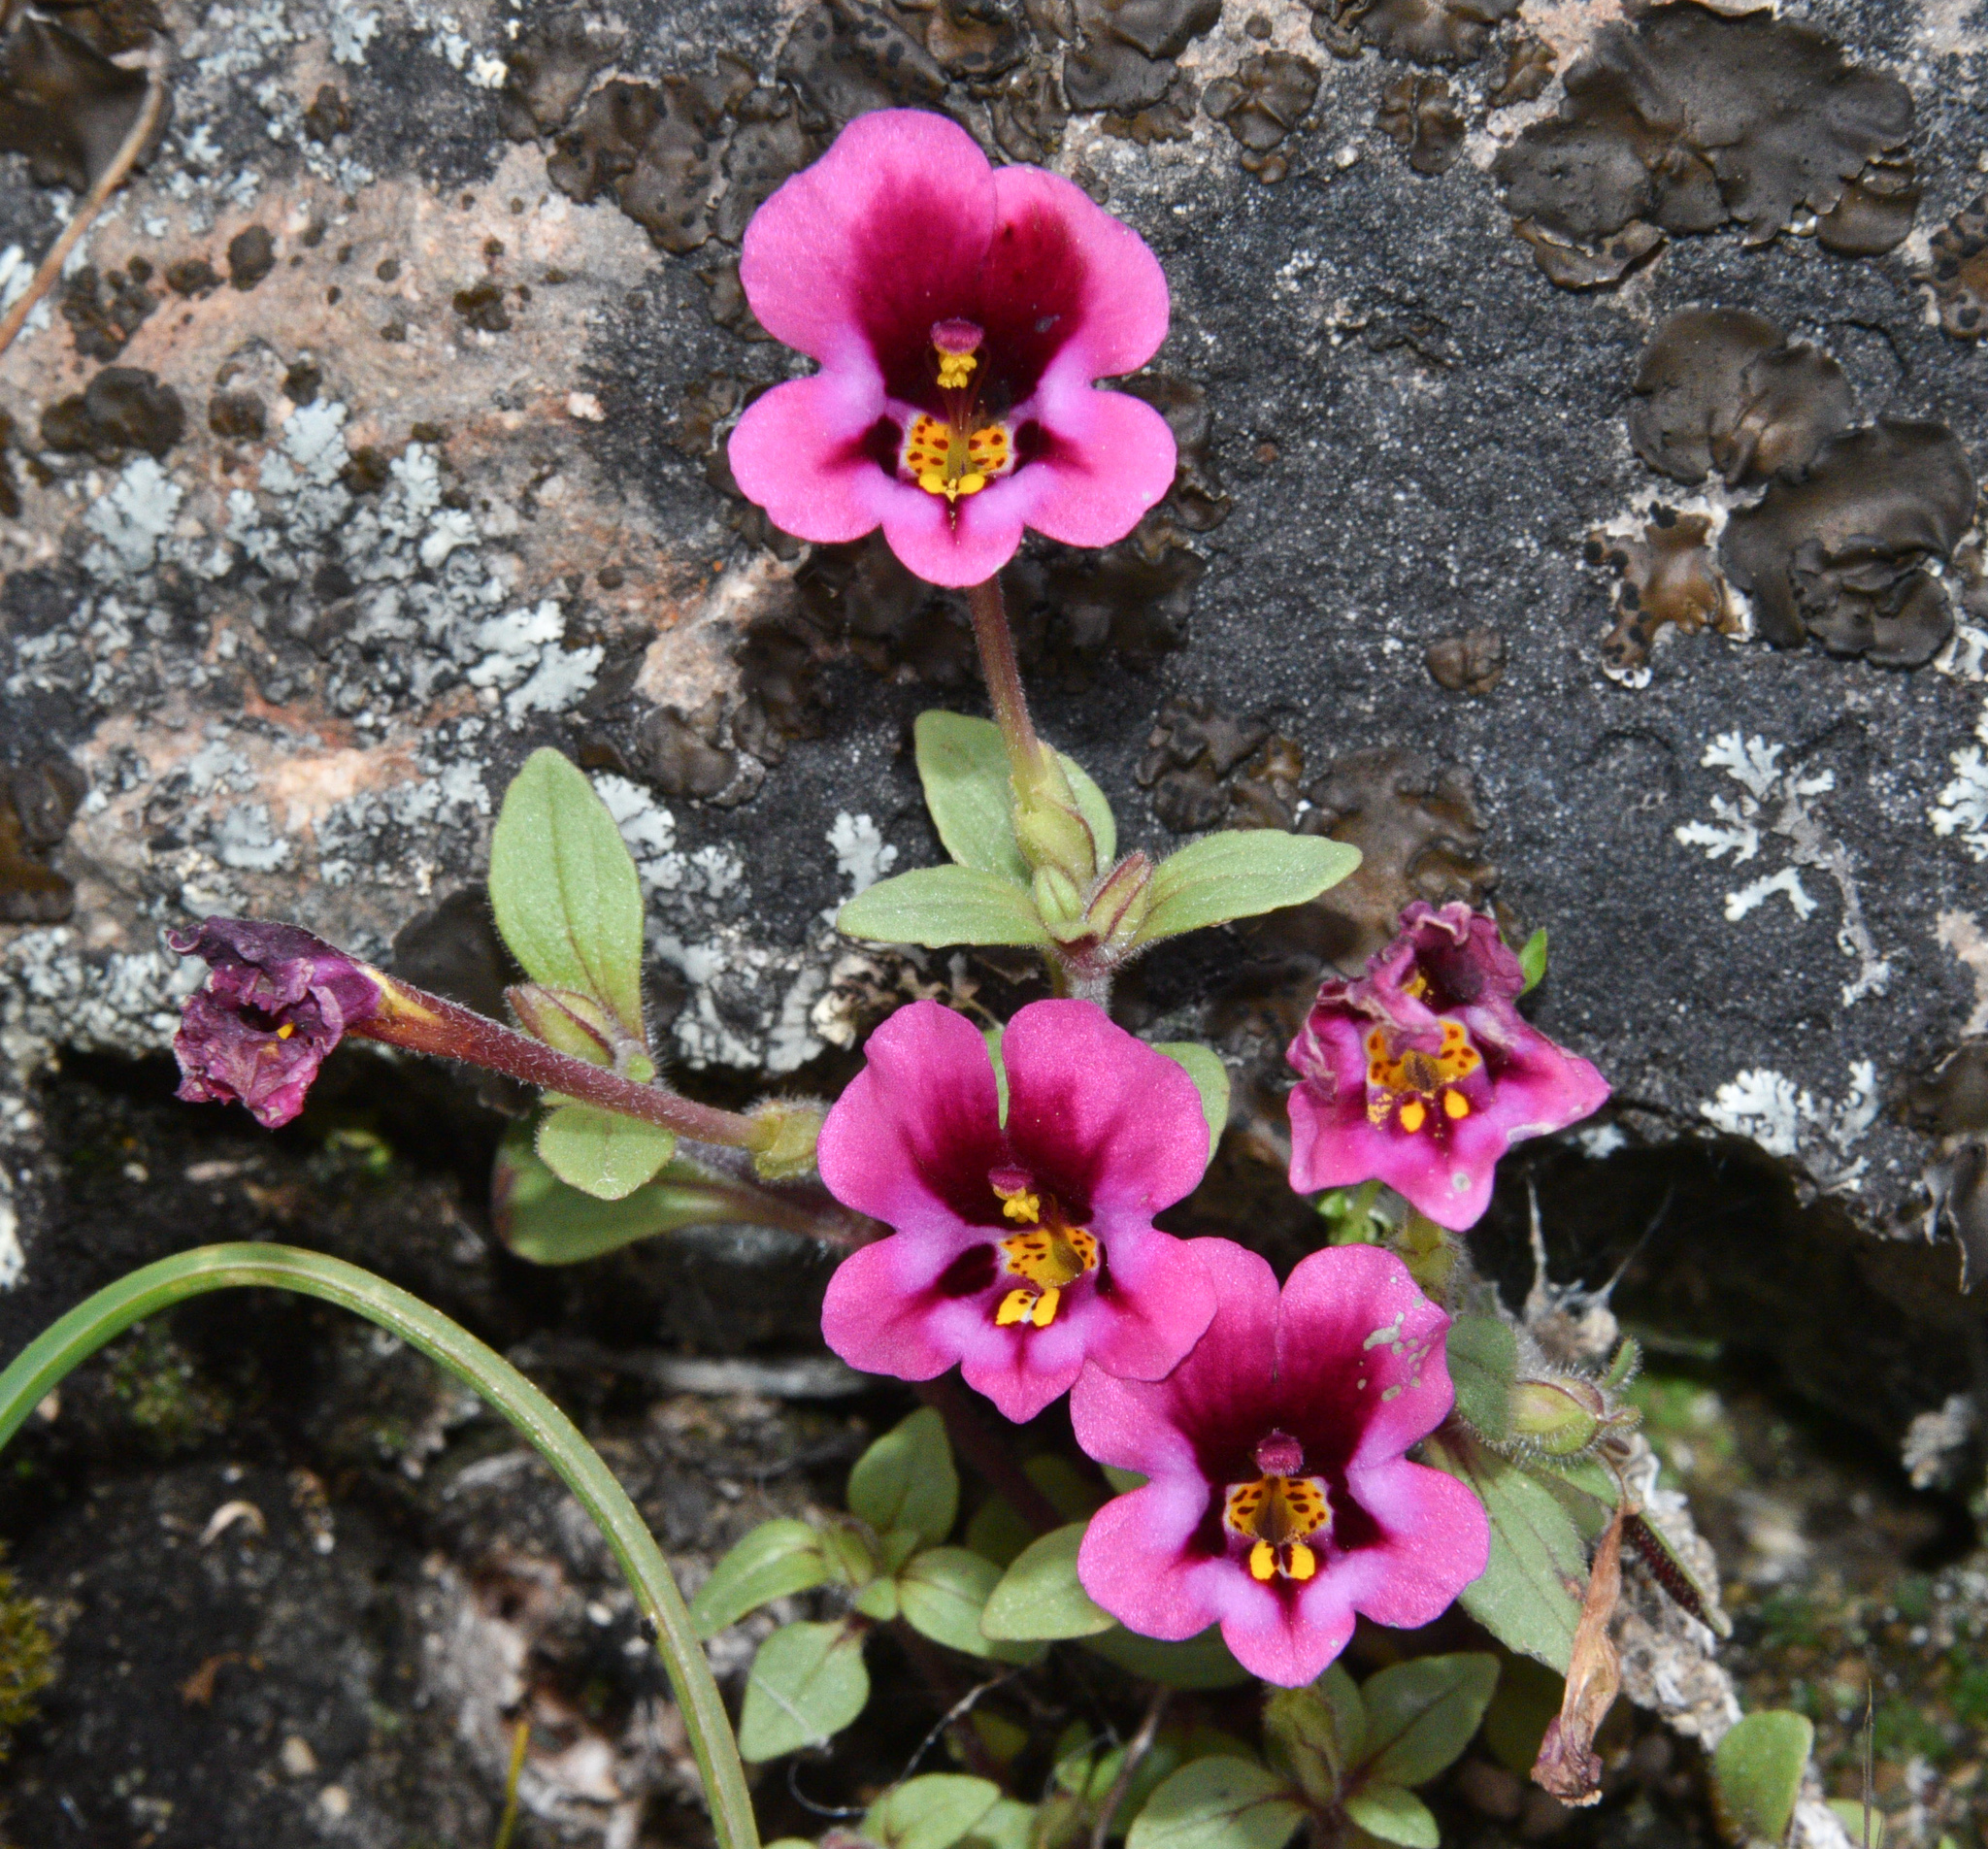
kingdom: Plantae
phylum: Tracheophyta
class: Magnoliopsida
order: Lamiales
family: Phrymaceae
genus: Diplacus
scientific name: Diplacus kelloggii
